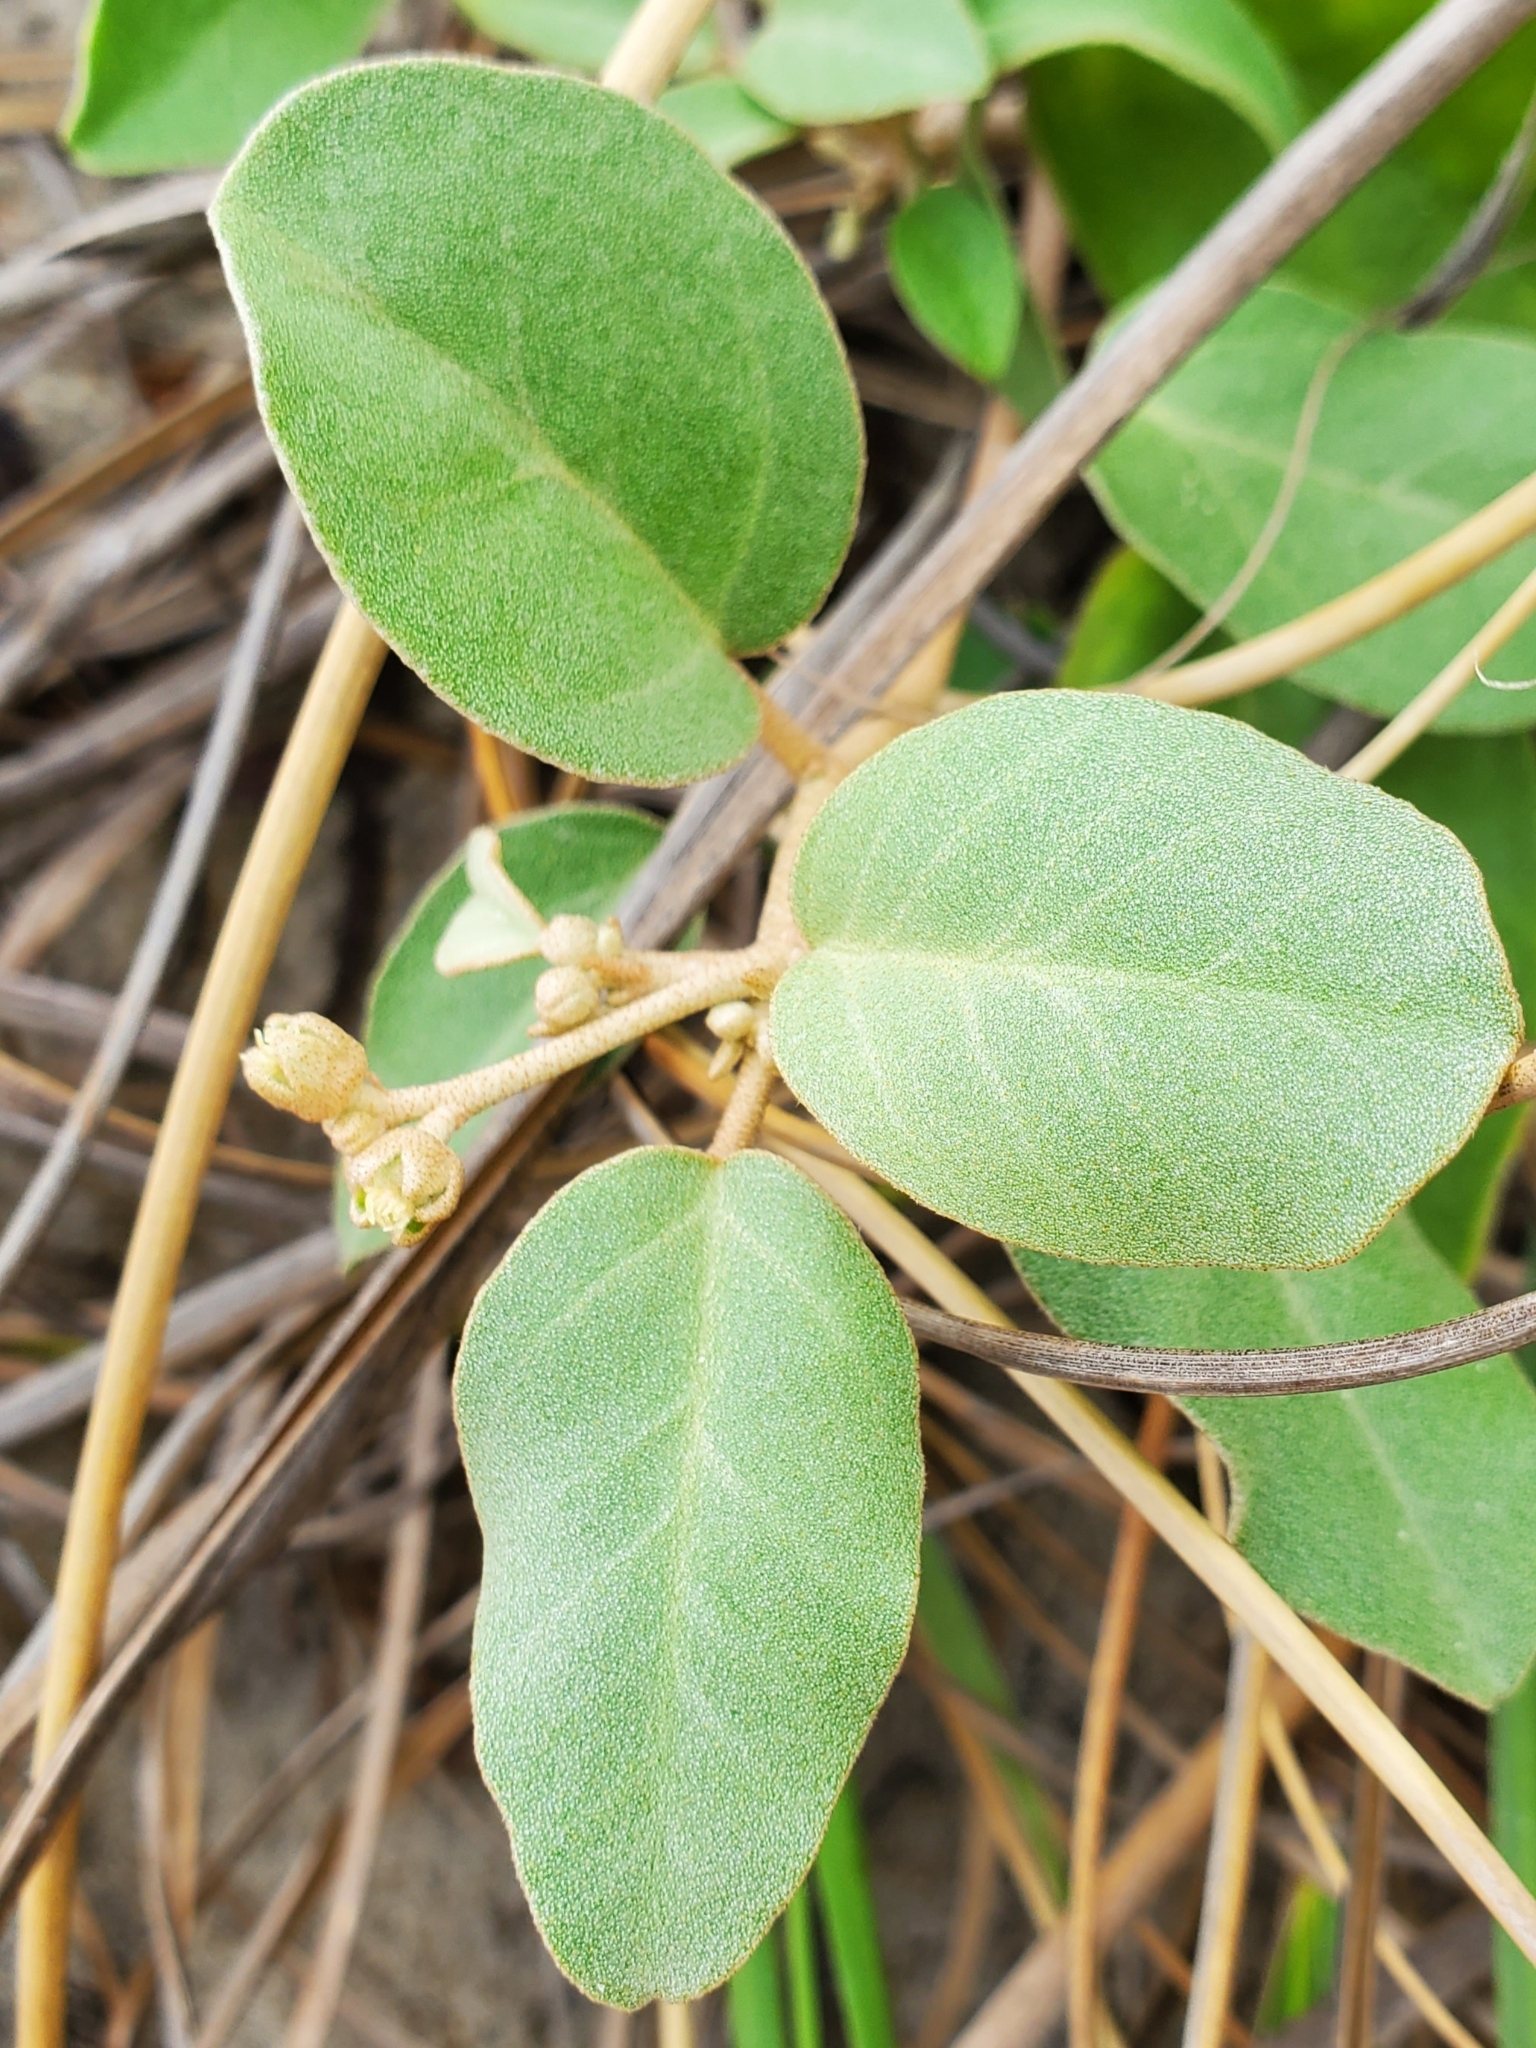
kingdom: Plantae
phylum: Tracheophyta
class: Magnoliopsida
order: Malpighiales
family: Euphorbiaceae
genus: Croton
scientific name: Croton punctatus
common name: Beach-tea
